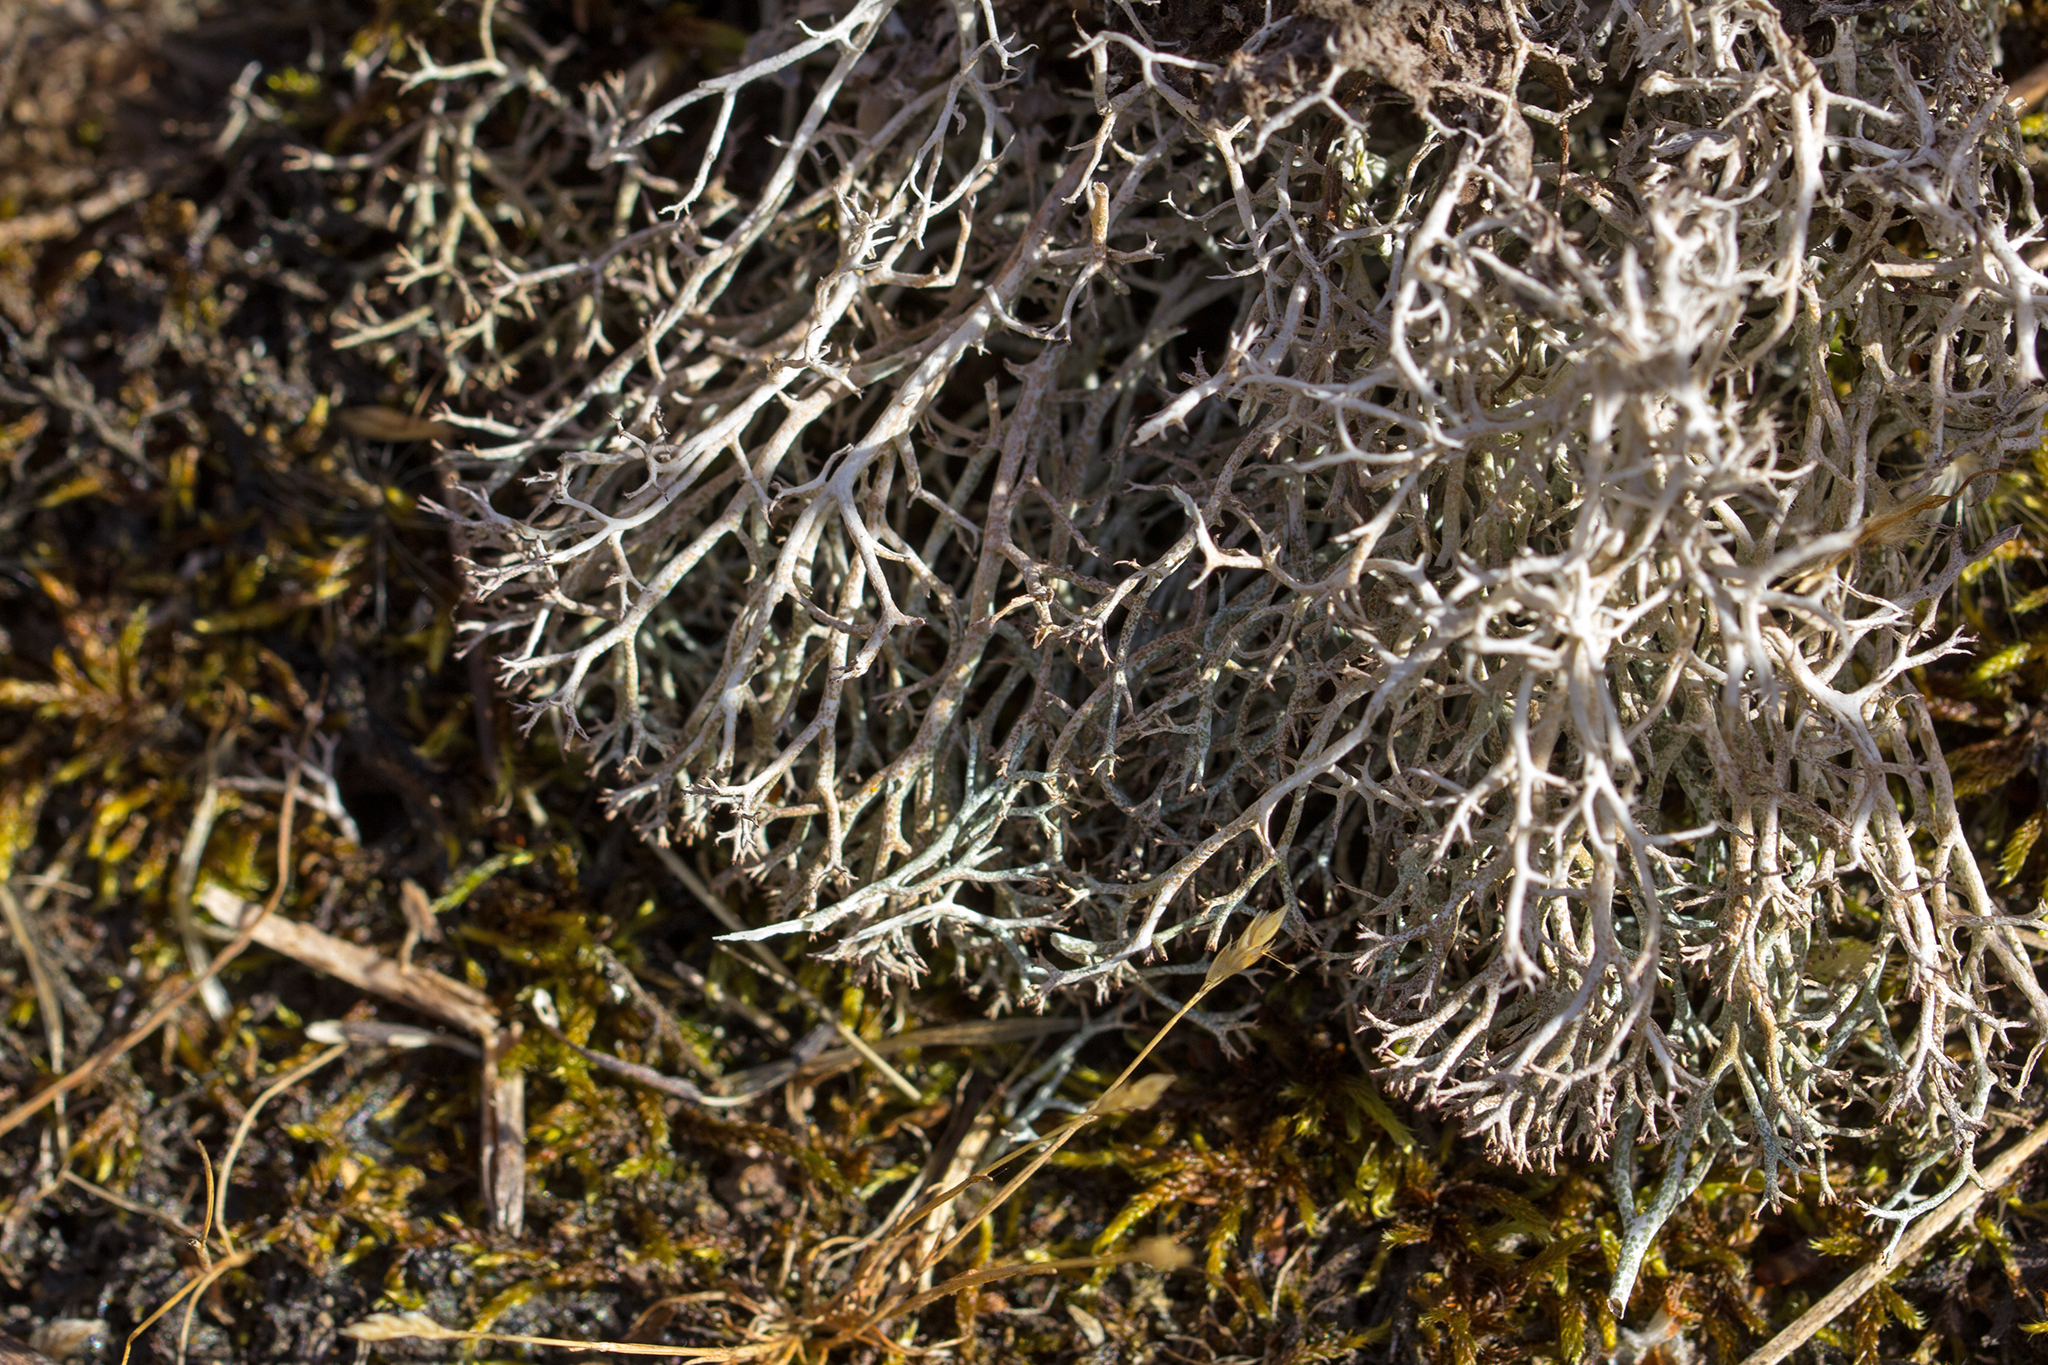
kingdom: Fungi
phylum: Ascomycota
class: Lecanoromycetes
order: Lecanorales
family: Cladoniaceae
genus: Cladonia
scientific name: Cladonia portentosa
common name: Reindeer lichen
